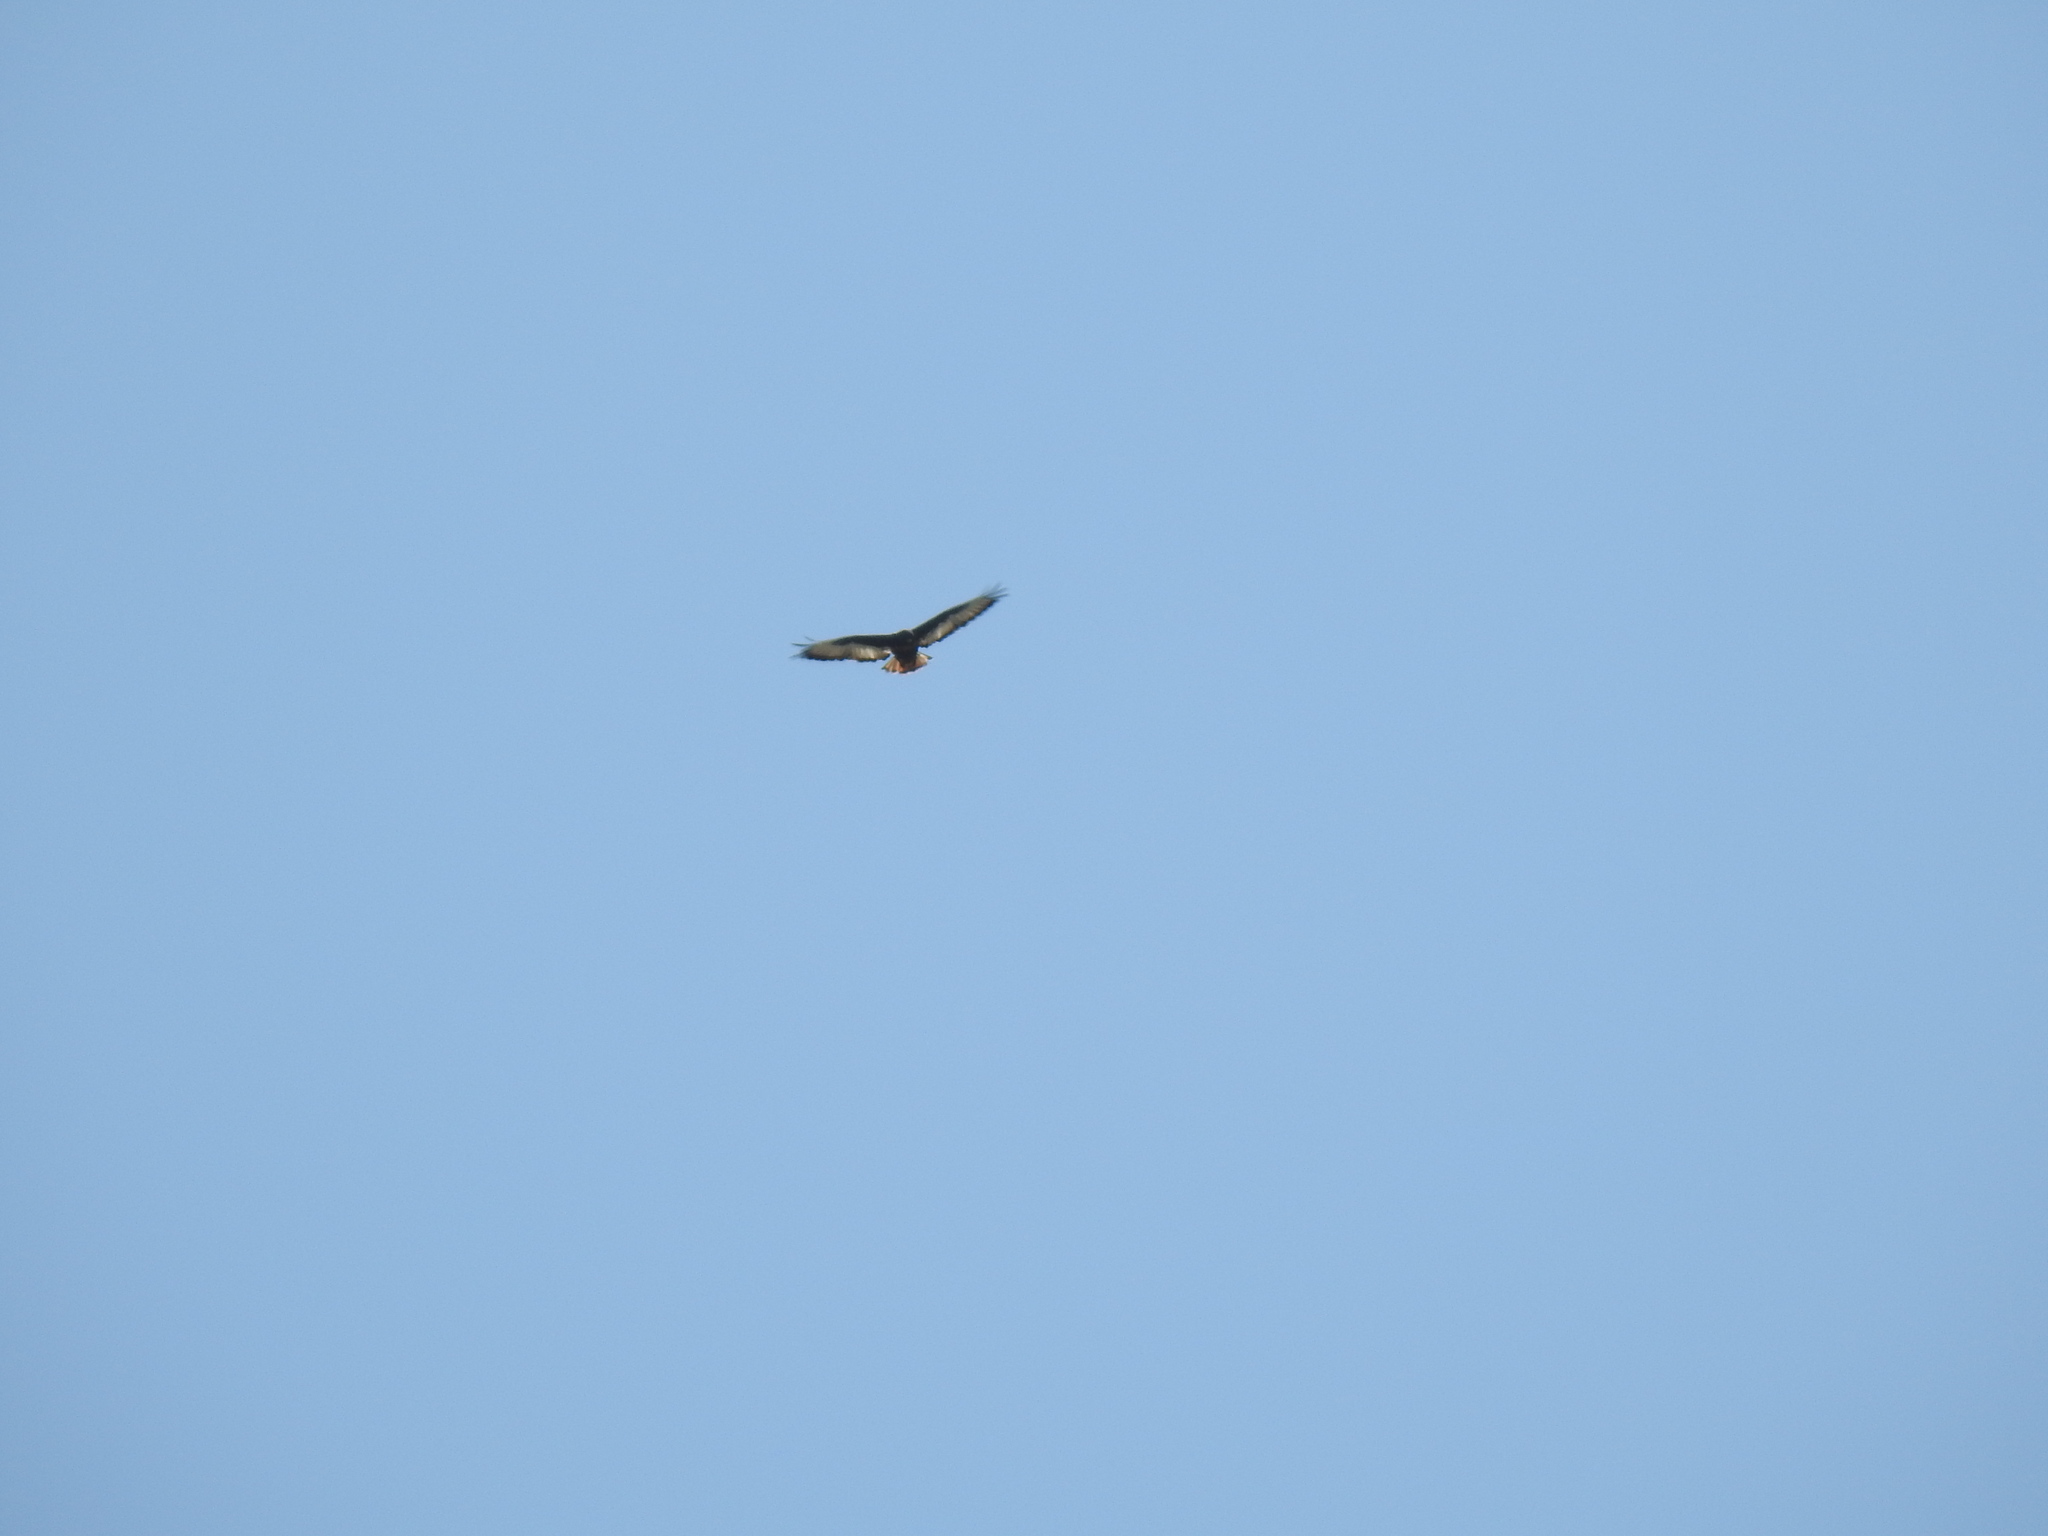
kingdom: Animalia
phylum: Chordata
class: Aves
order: Accipitriformes
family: Accipitridae
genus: Buteo
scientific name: Buteo rufofuscus
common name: Jackal buzzard
